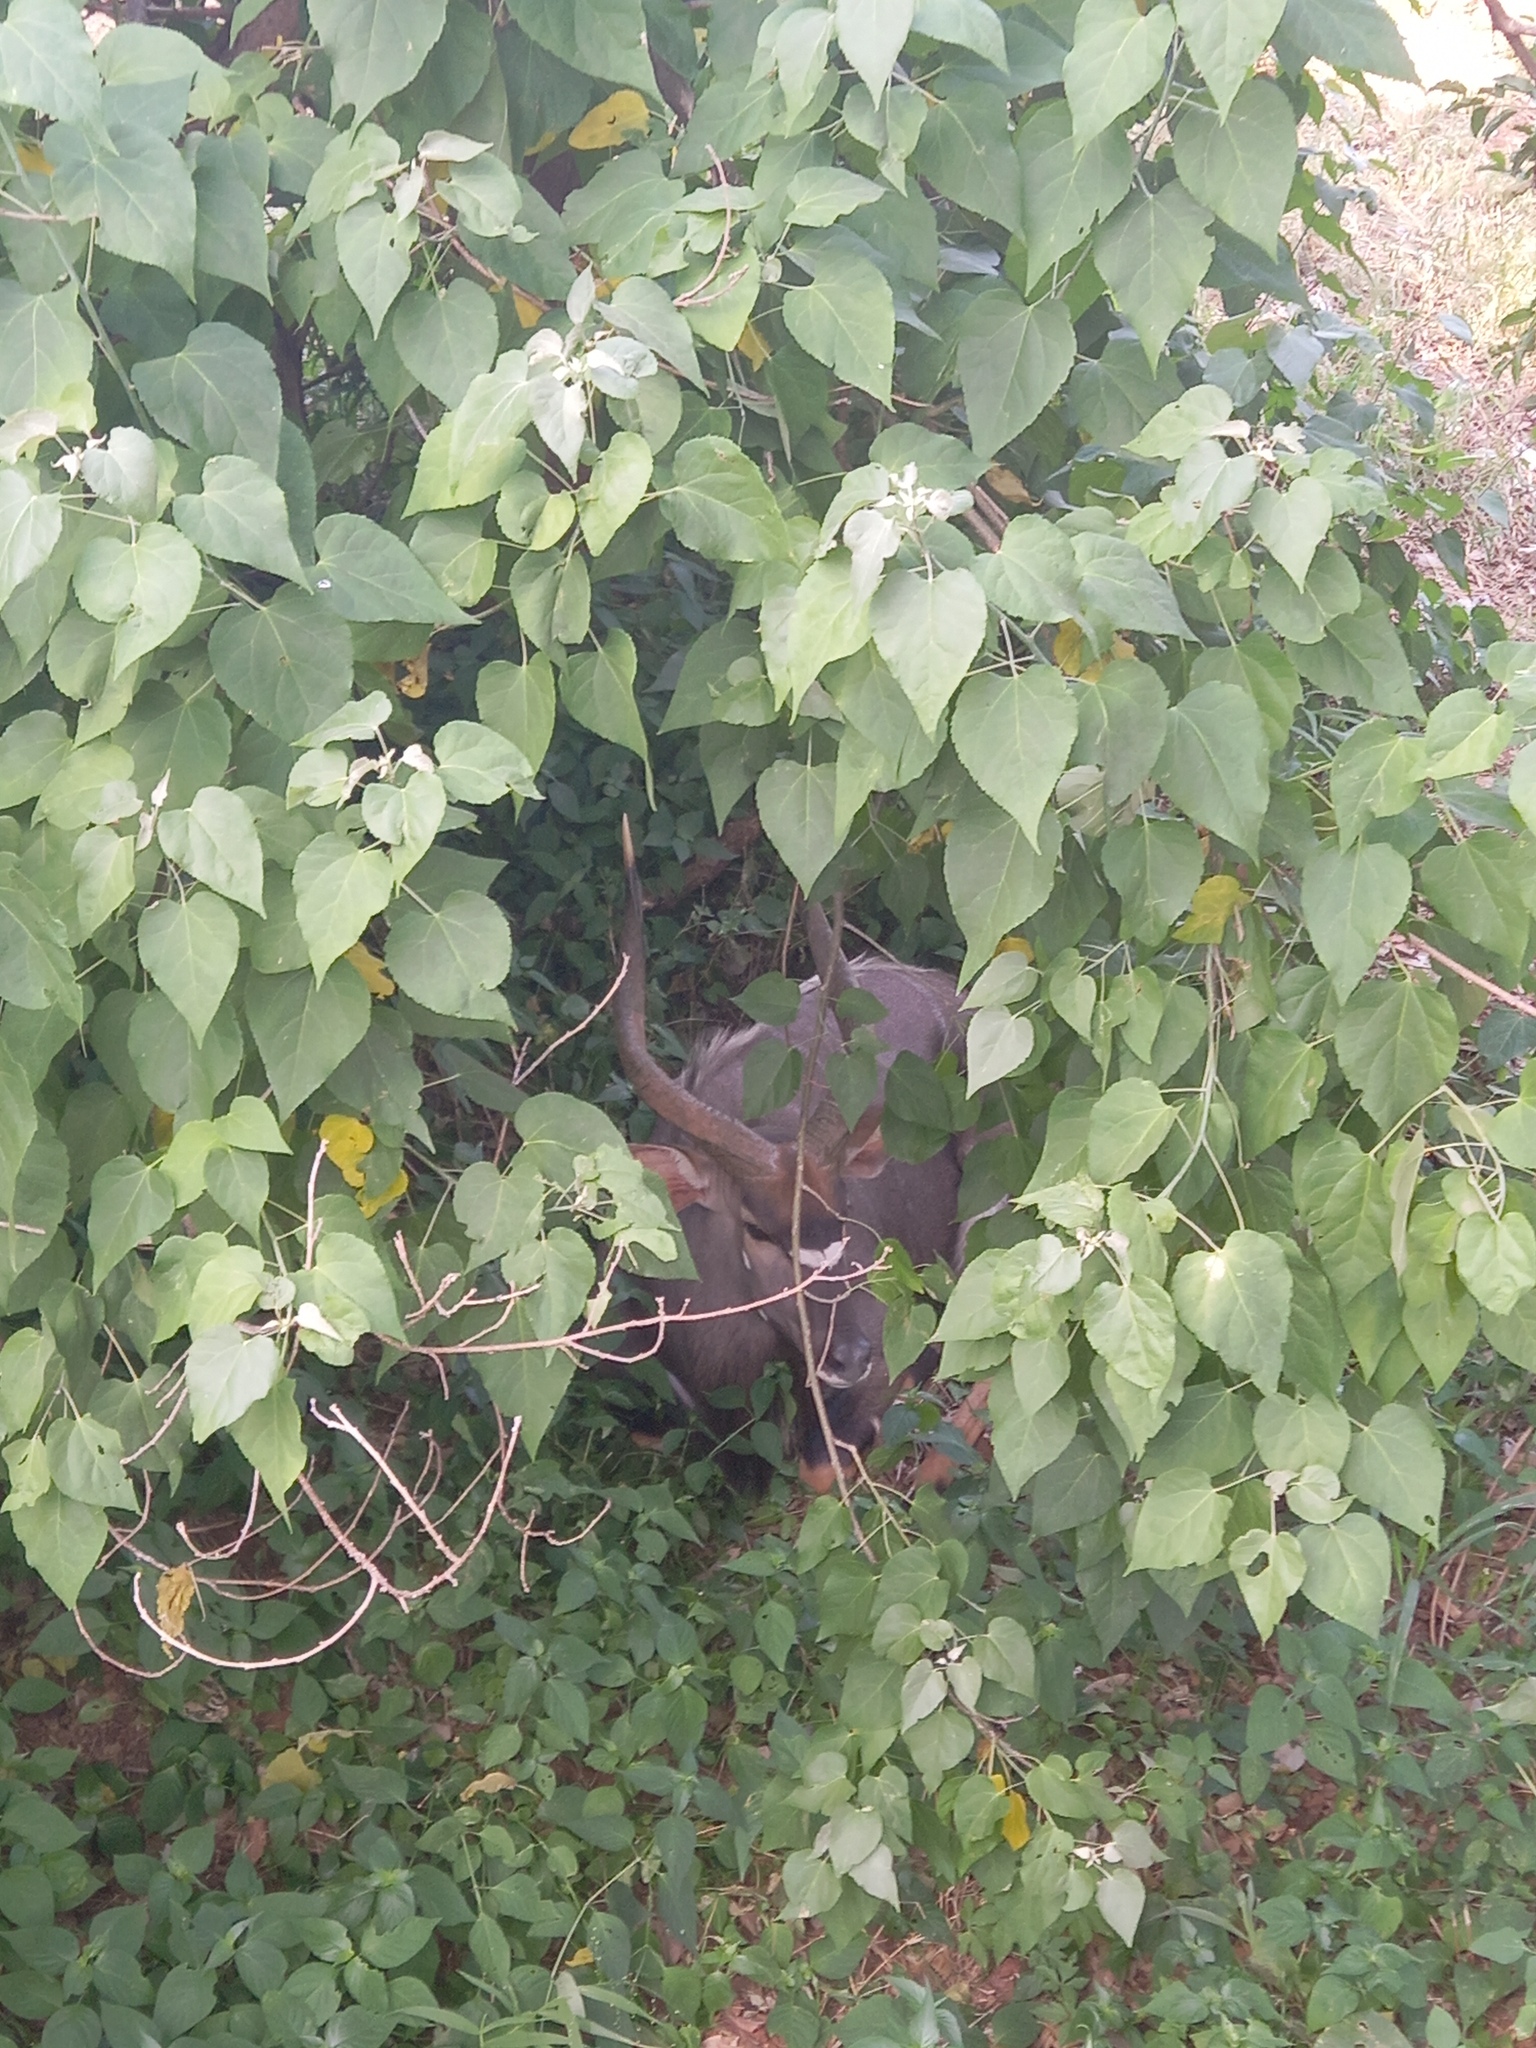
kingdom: Animalia
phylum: Chordata
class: Mammalia
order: Artiodactyla
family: Bovidae
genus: Tragelaphus
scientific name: Tragelaphus angasii
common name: Nyala
